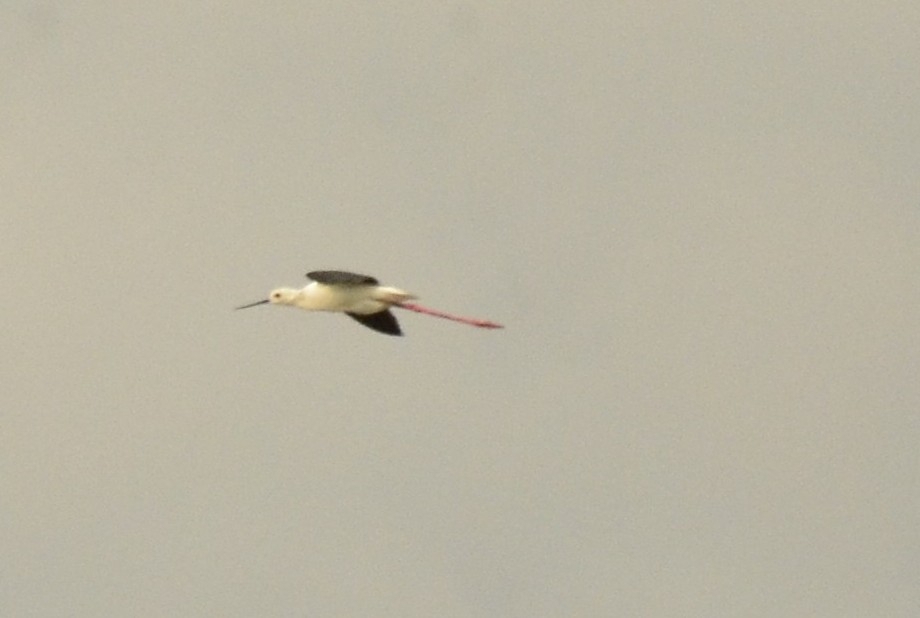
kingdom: Animalia
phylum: Chordata
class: Aves
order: Charadriiformes
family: Recurvirostridae
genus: Himantopus
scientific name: Himantopus himantopus
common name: Black-winged stilt
